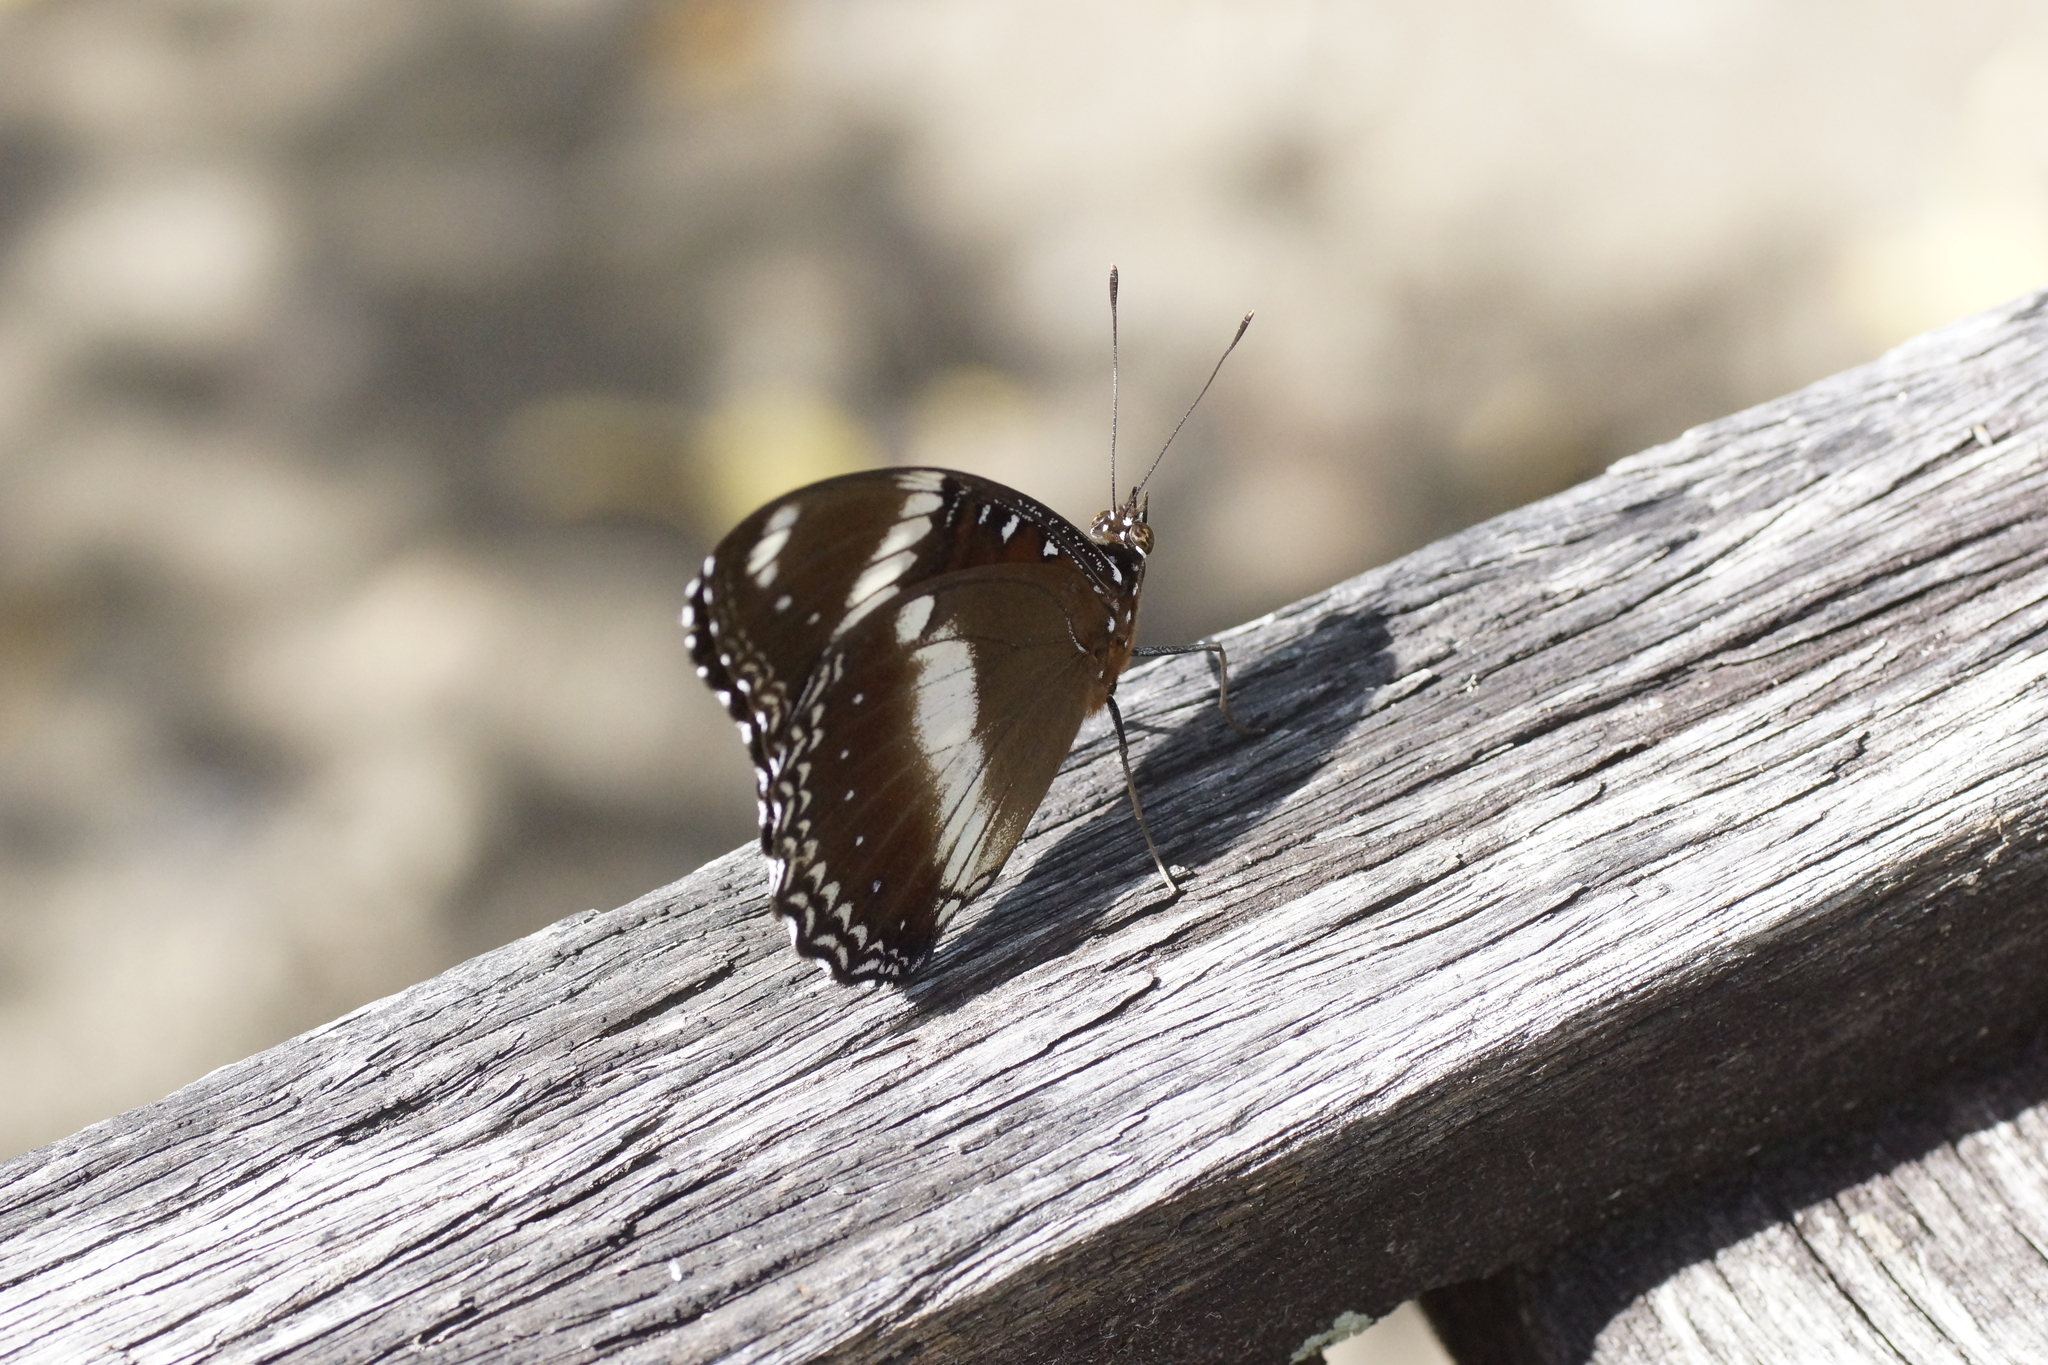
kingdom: Animalia
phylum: Arthropoda
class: Insecta
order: Lepidoptera
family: Nymphalidae
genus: Hypolimnas
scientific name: Hypolimnas bolina
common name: Great eggfly
